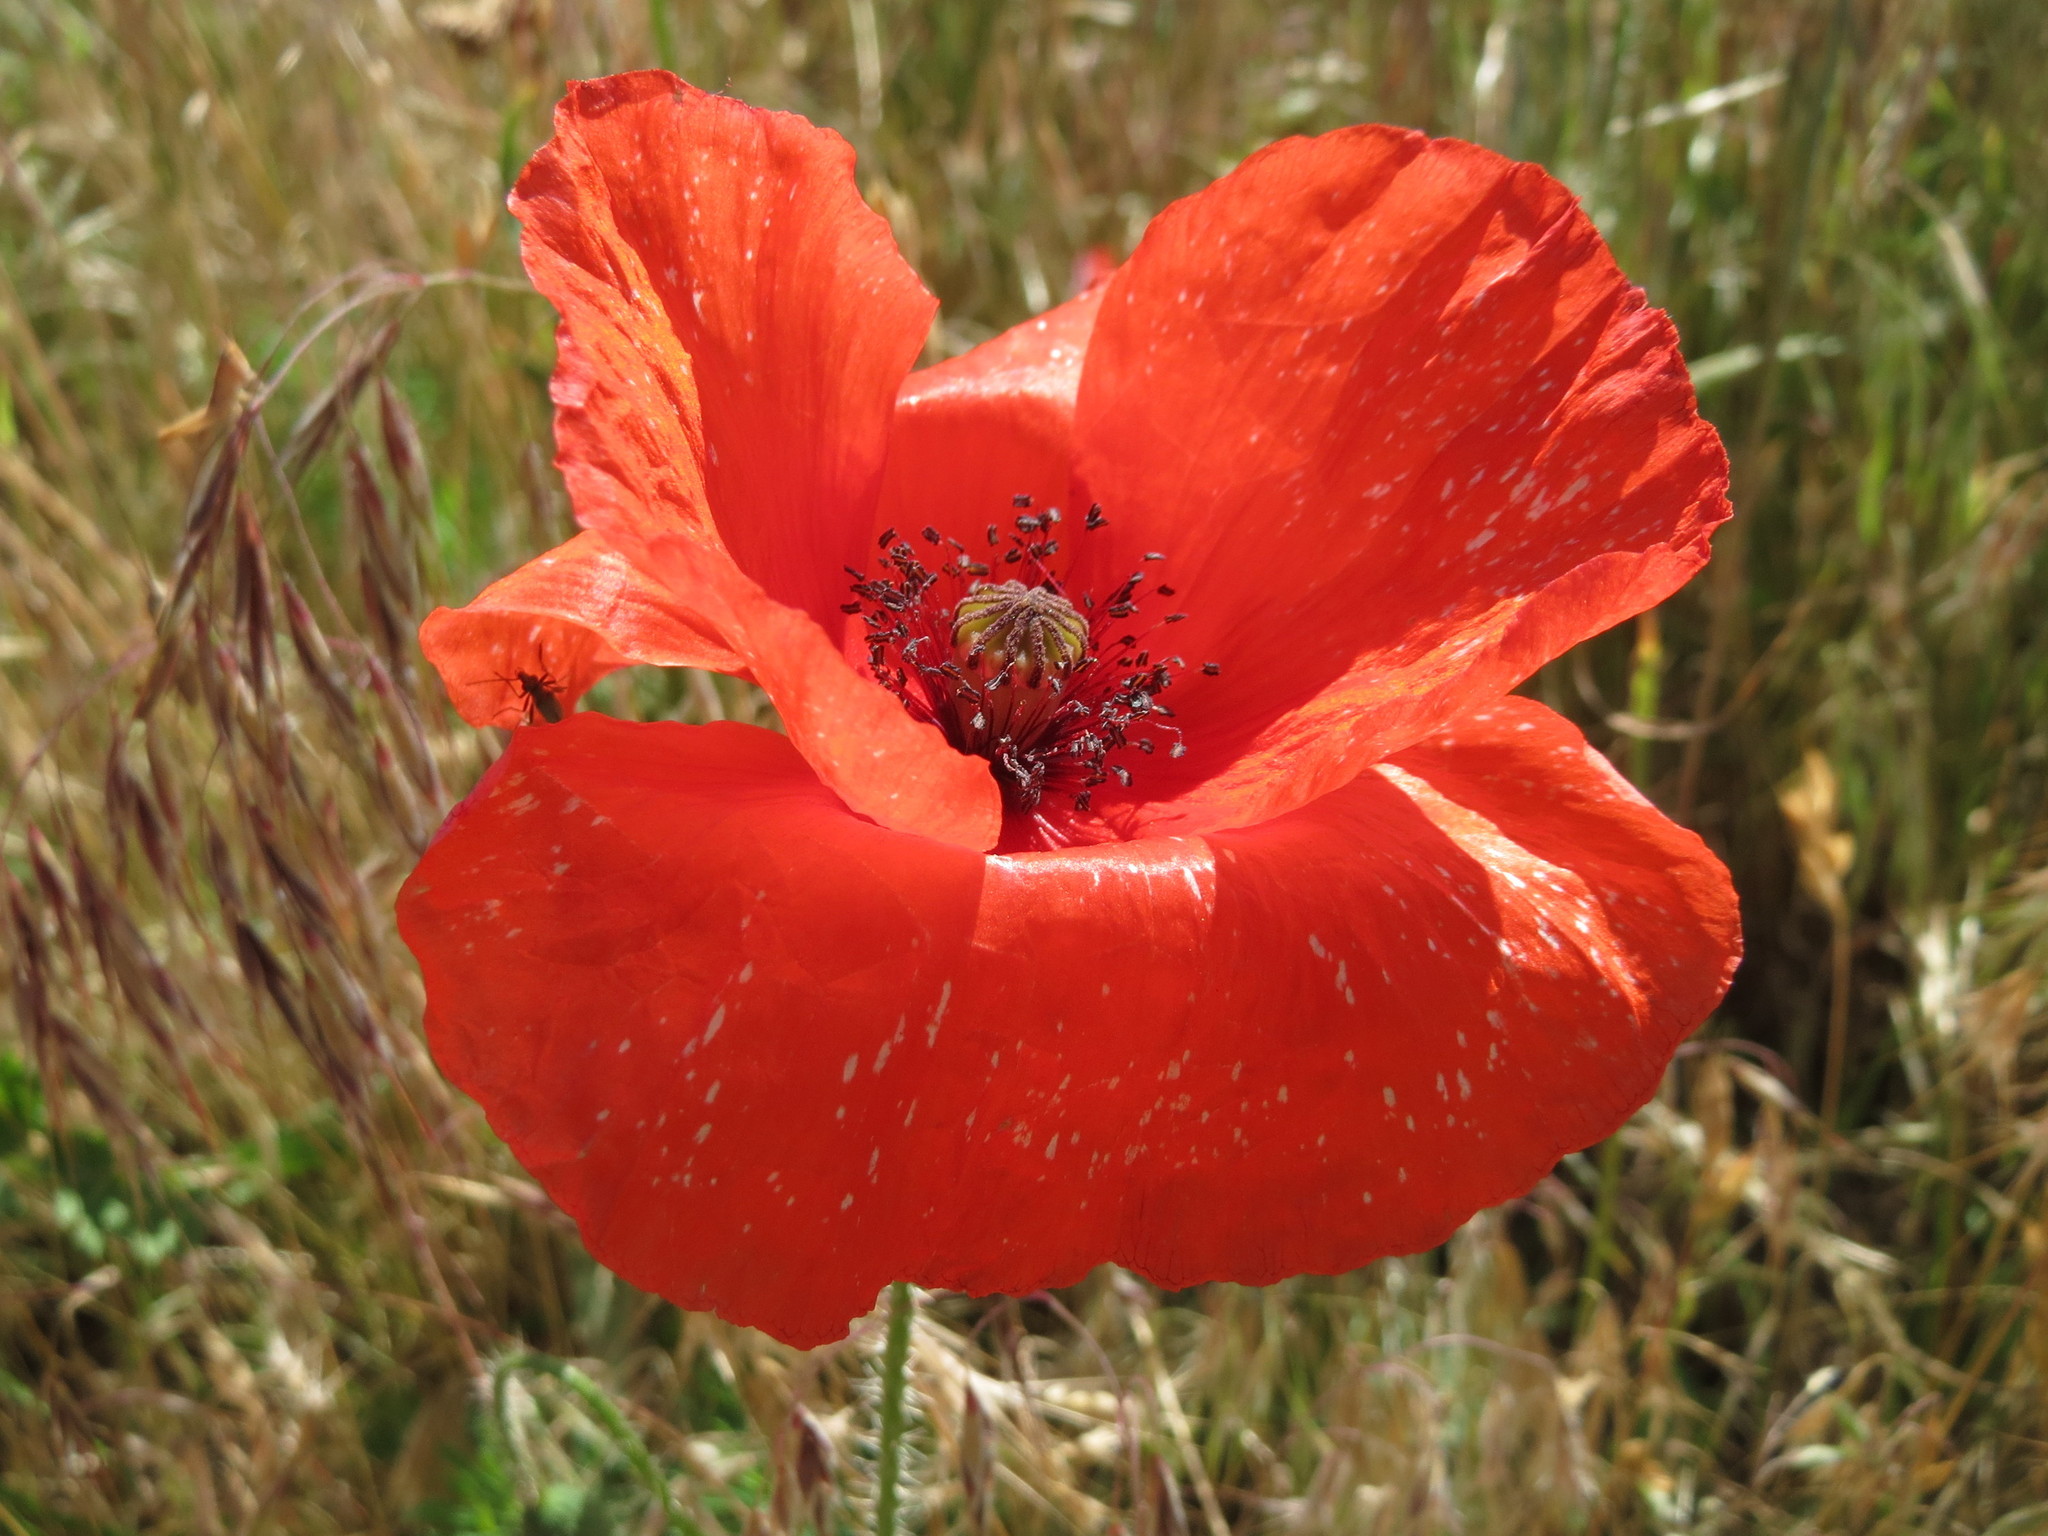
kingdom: Plantae
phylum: Tracheophyta
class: Magnoliopsida
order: Ranunculales
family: Papaveraceae
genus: Papaver
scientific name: Papaver rhoeas
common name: Corn poppy
